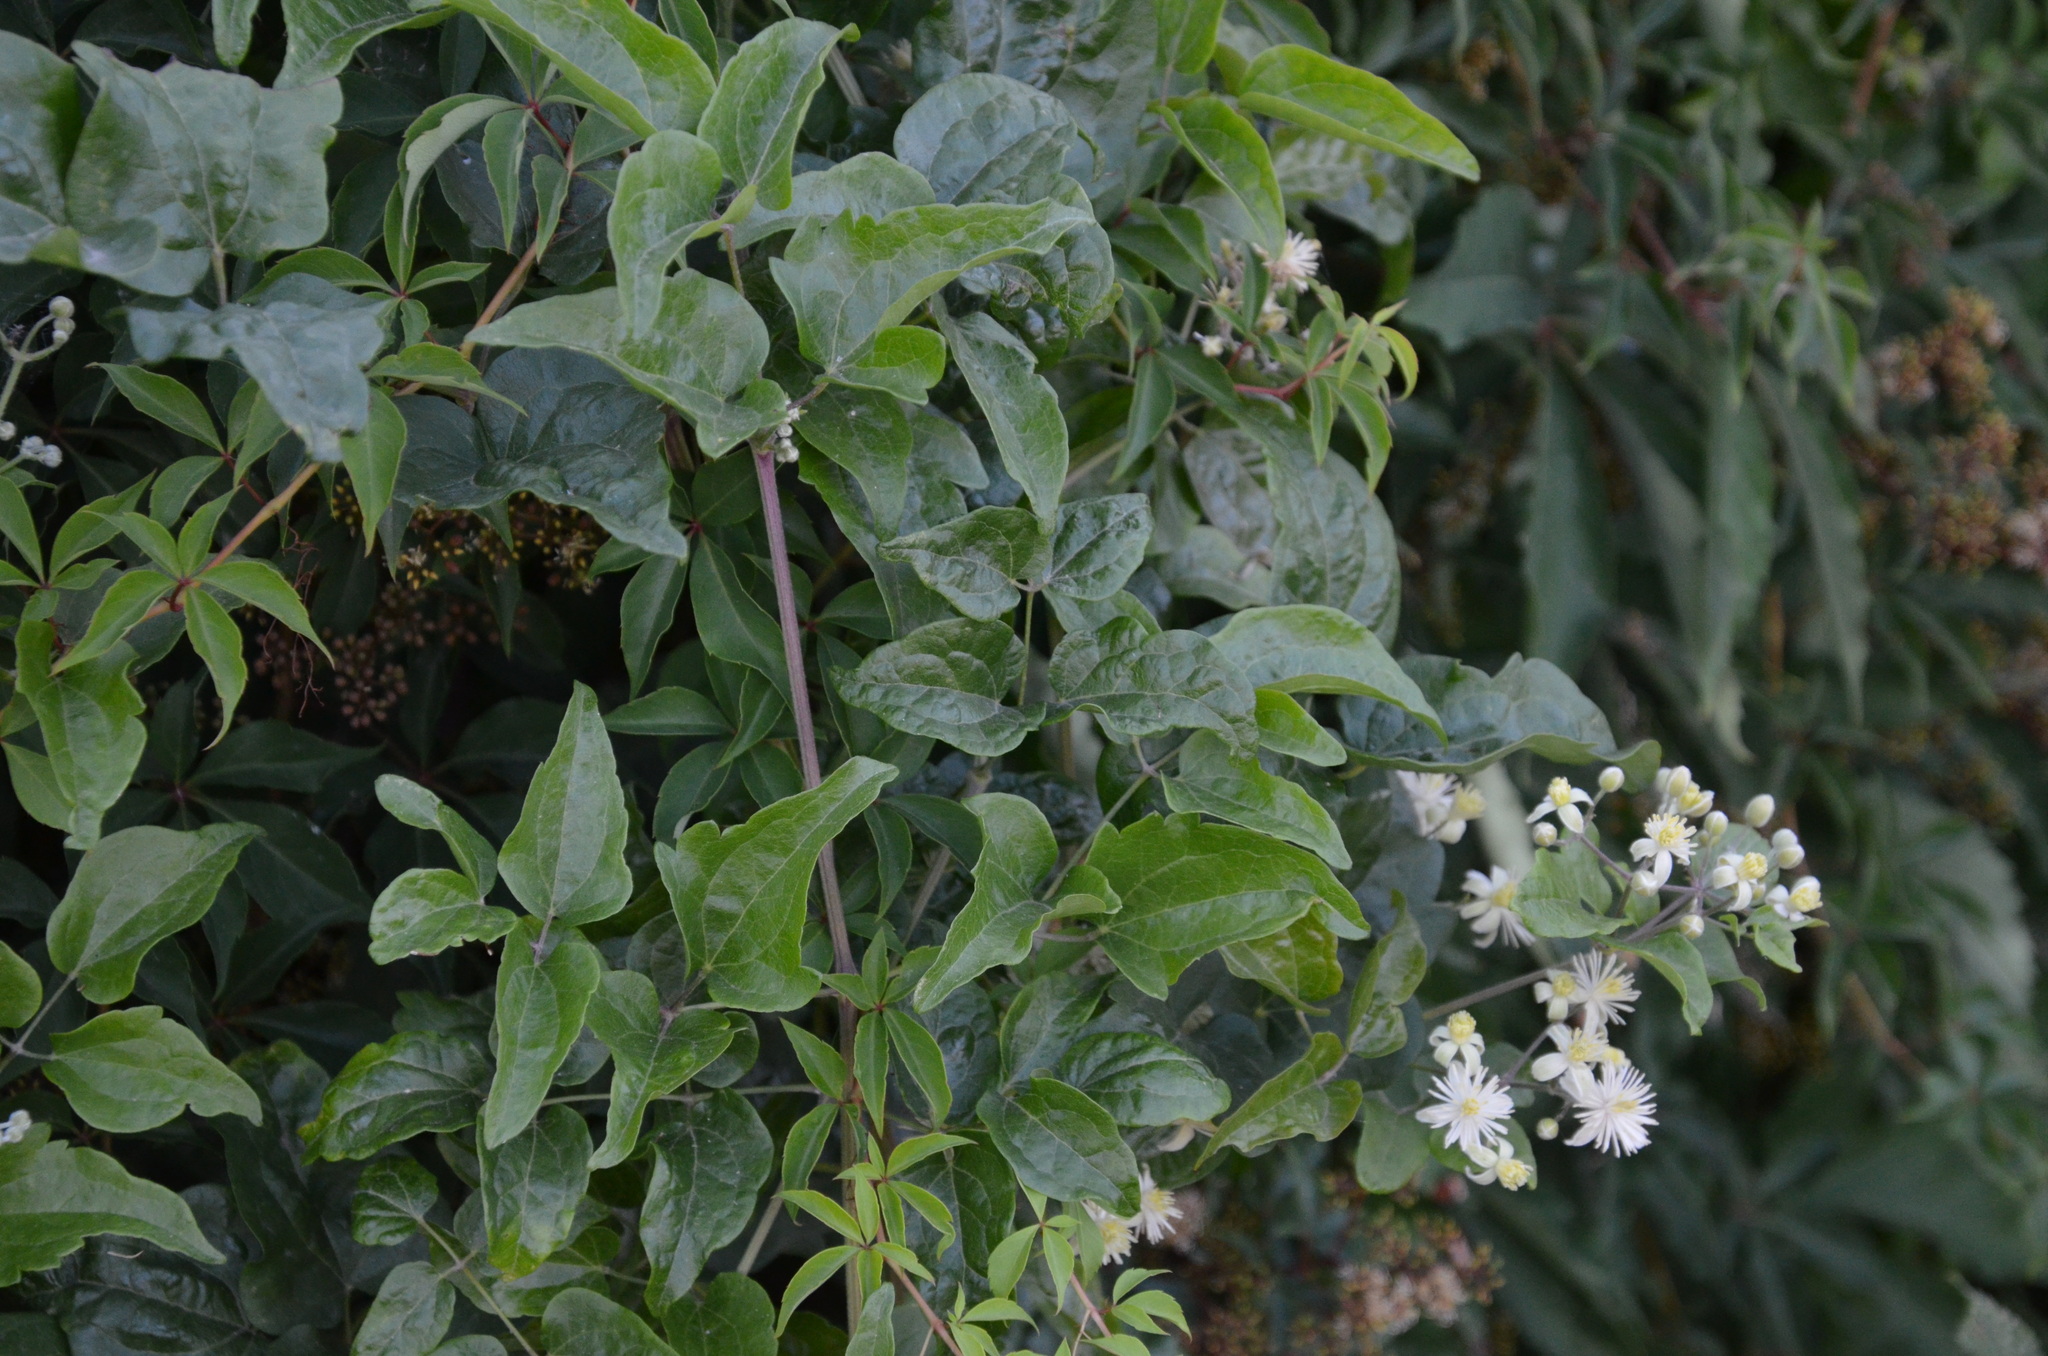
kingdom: Plantae
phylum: Tracheophyta
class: Magnoliopsida
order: Ranunculales
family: Ranunculaceae
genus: Clematis
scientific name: Clematis vitalba
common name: Evergreen clematis
